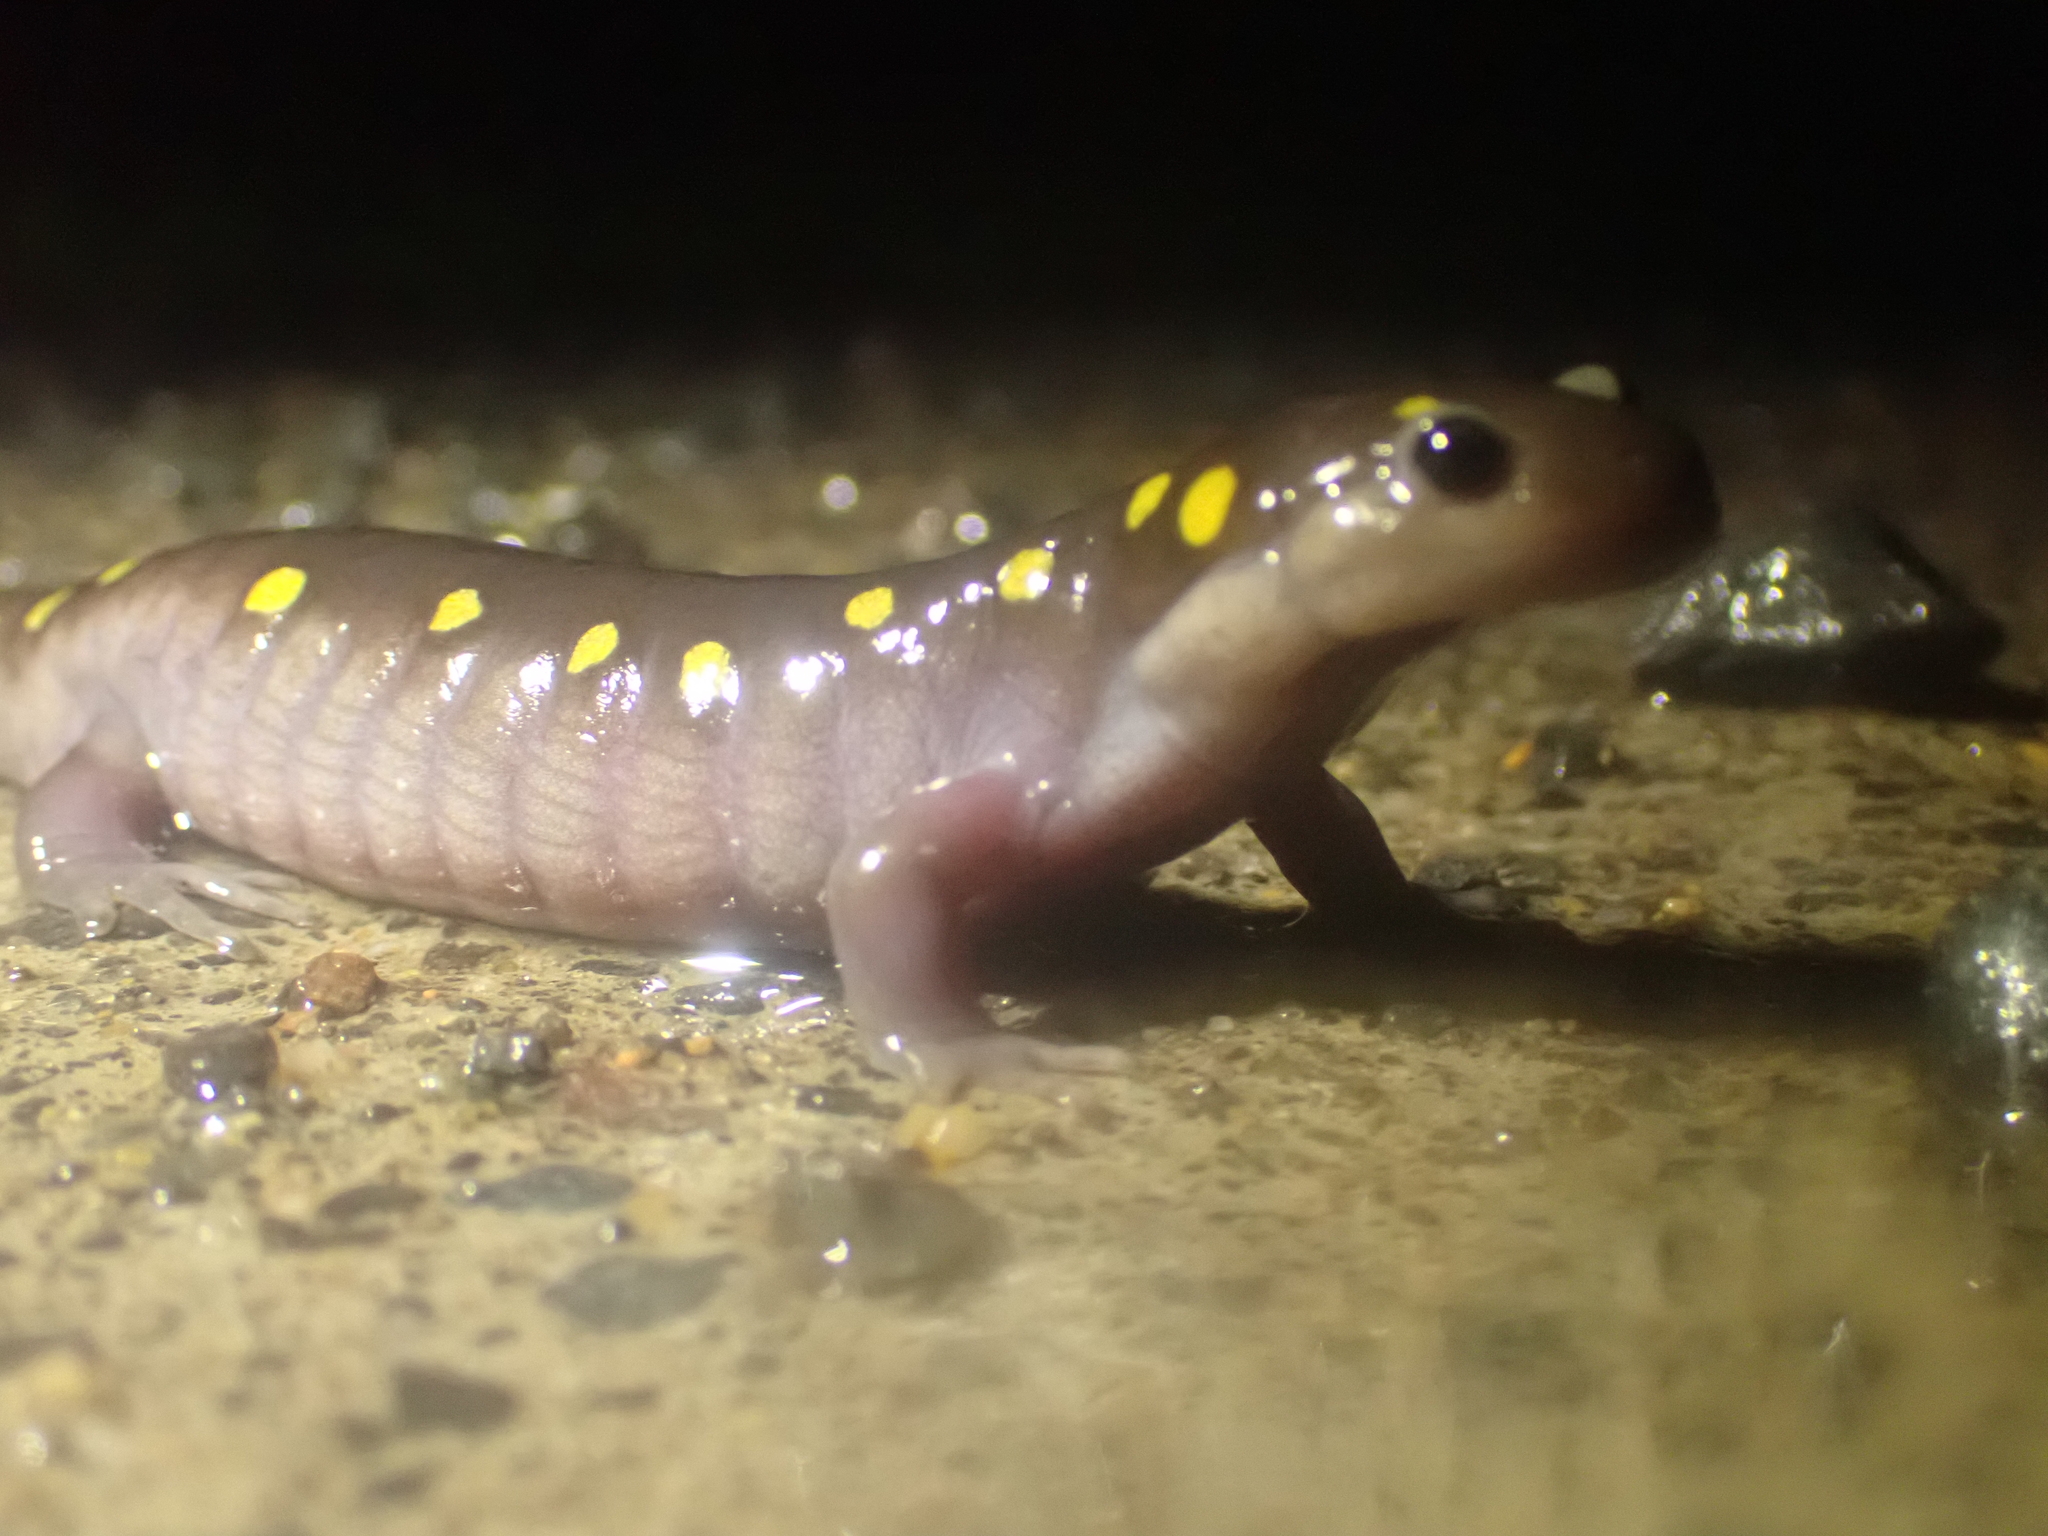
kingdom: Animalia
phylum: Chordata
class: Amphibia
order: Caudata
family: Ambystomatidae
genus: Ambystoma
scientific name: Ambystoma maculatum
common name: Spotted salamander
